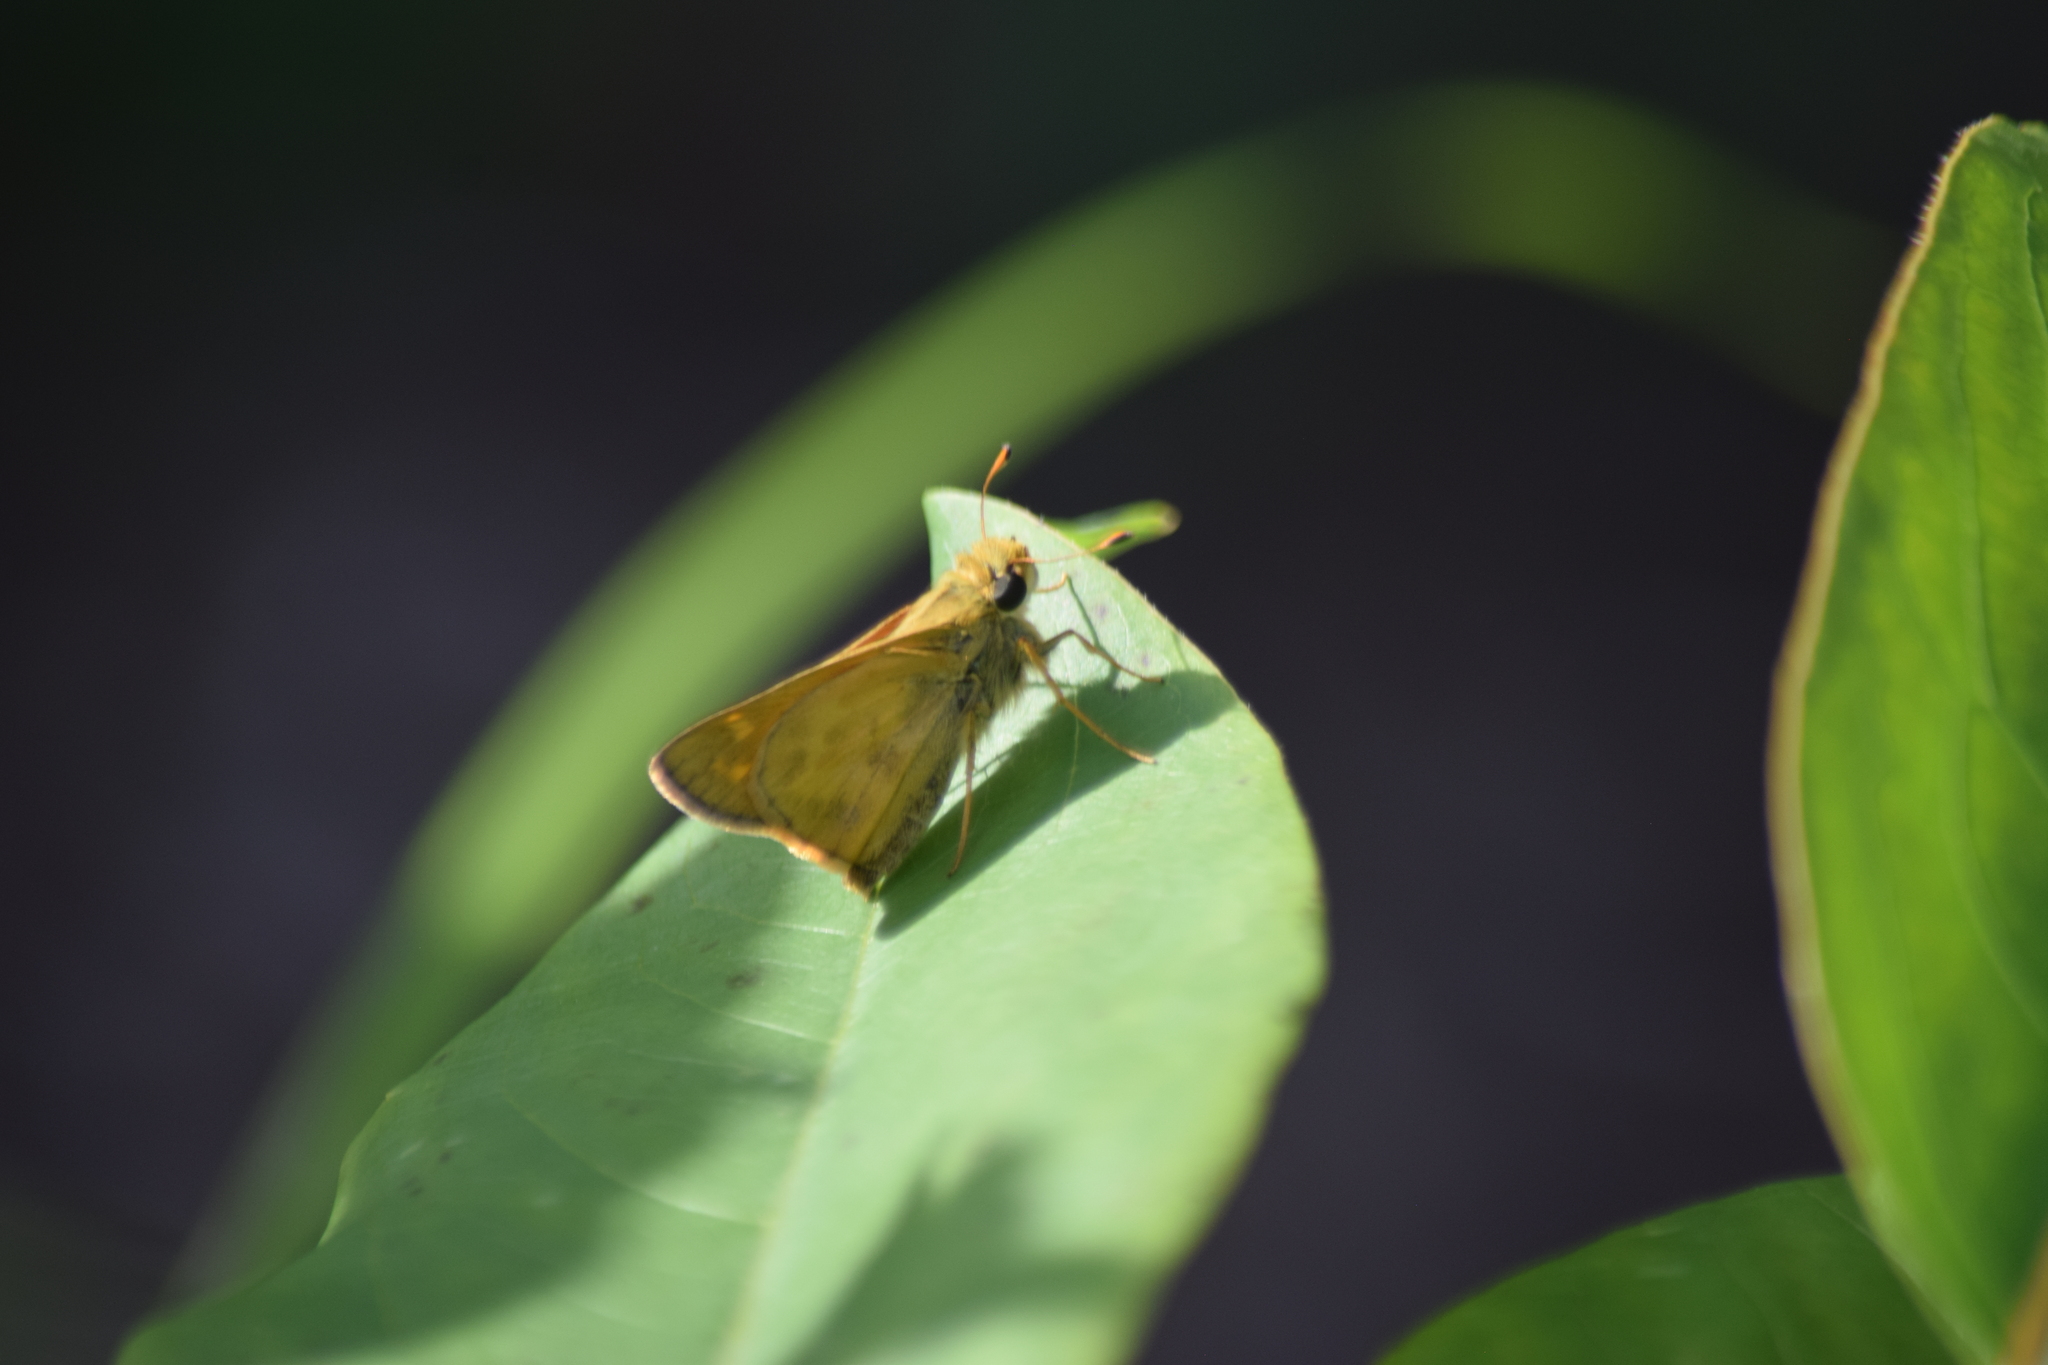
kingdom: Animalia
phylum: Arthropoda
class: Insecta
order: Lepidoptera
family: Hesperiidae
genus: Atalopedes
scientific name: Atalopedes
